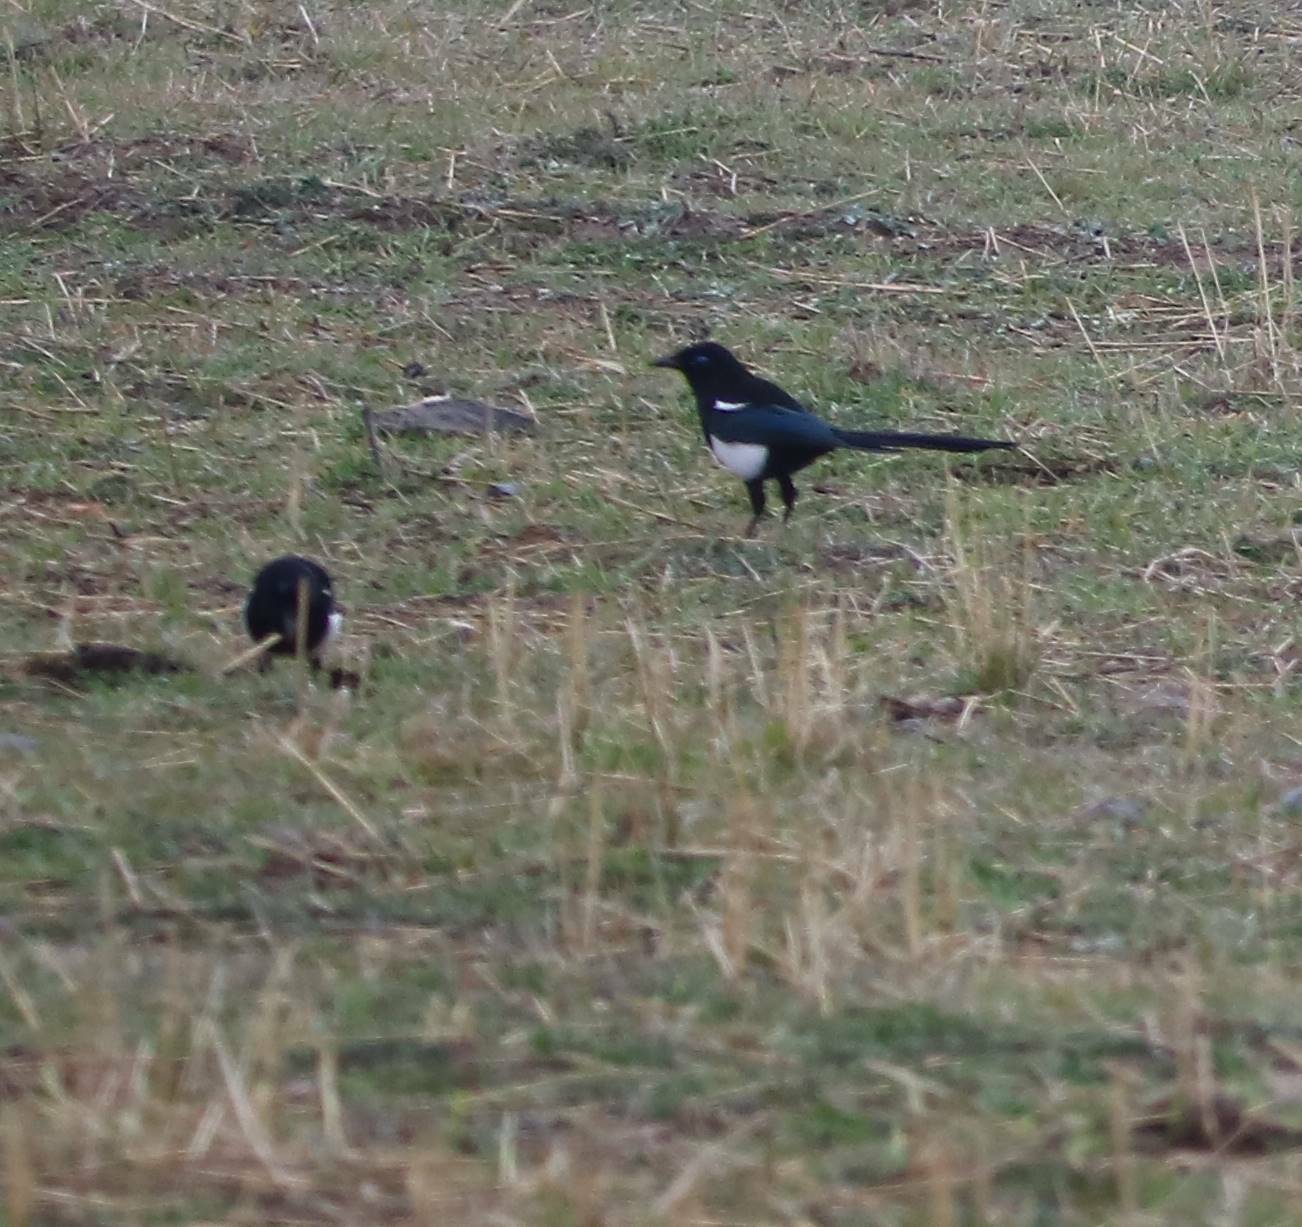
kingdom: Animalia
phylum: Chordata
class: Aves
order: Passeriformes
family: Corvidae
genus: Pica
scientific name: Pica mauritanica
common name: Maghreb magpie
